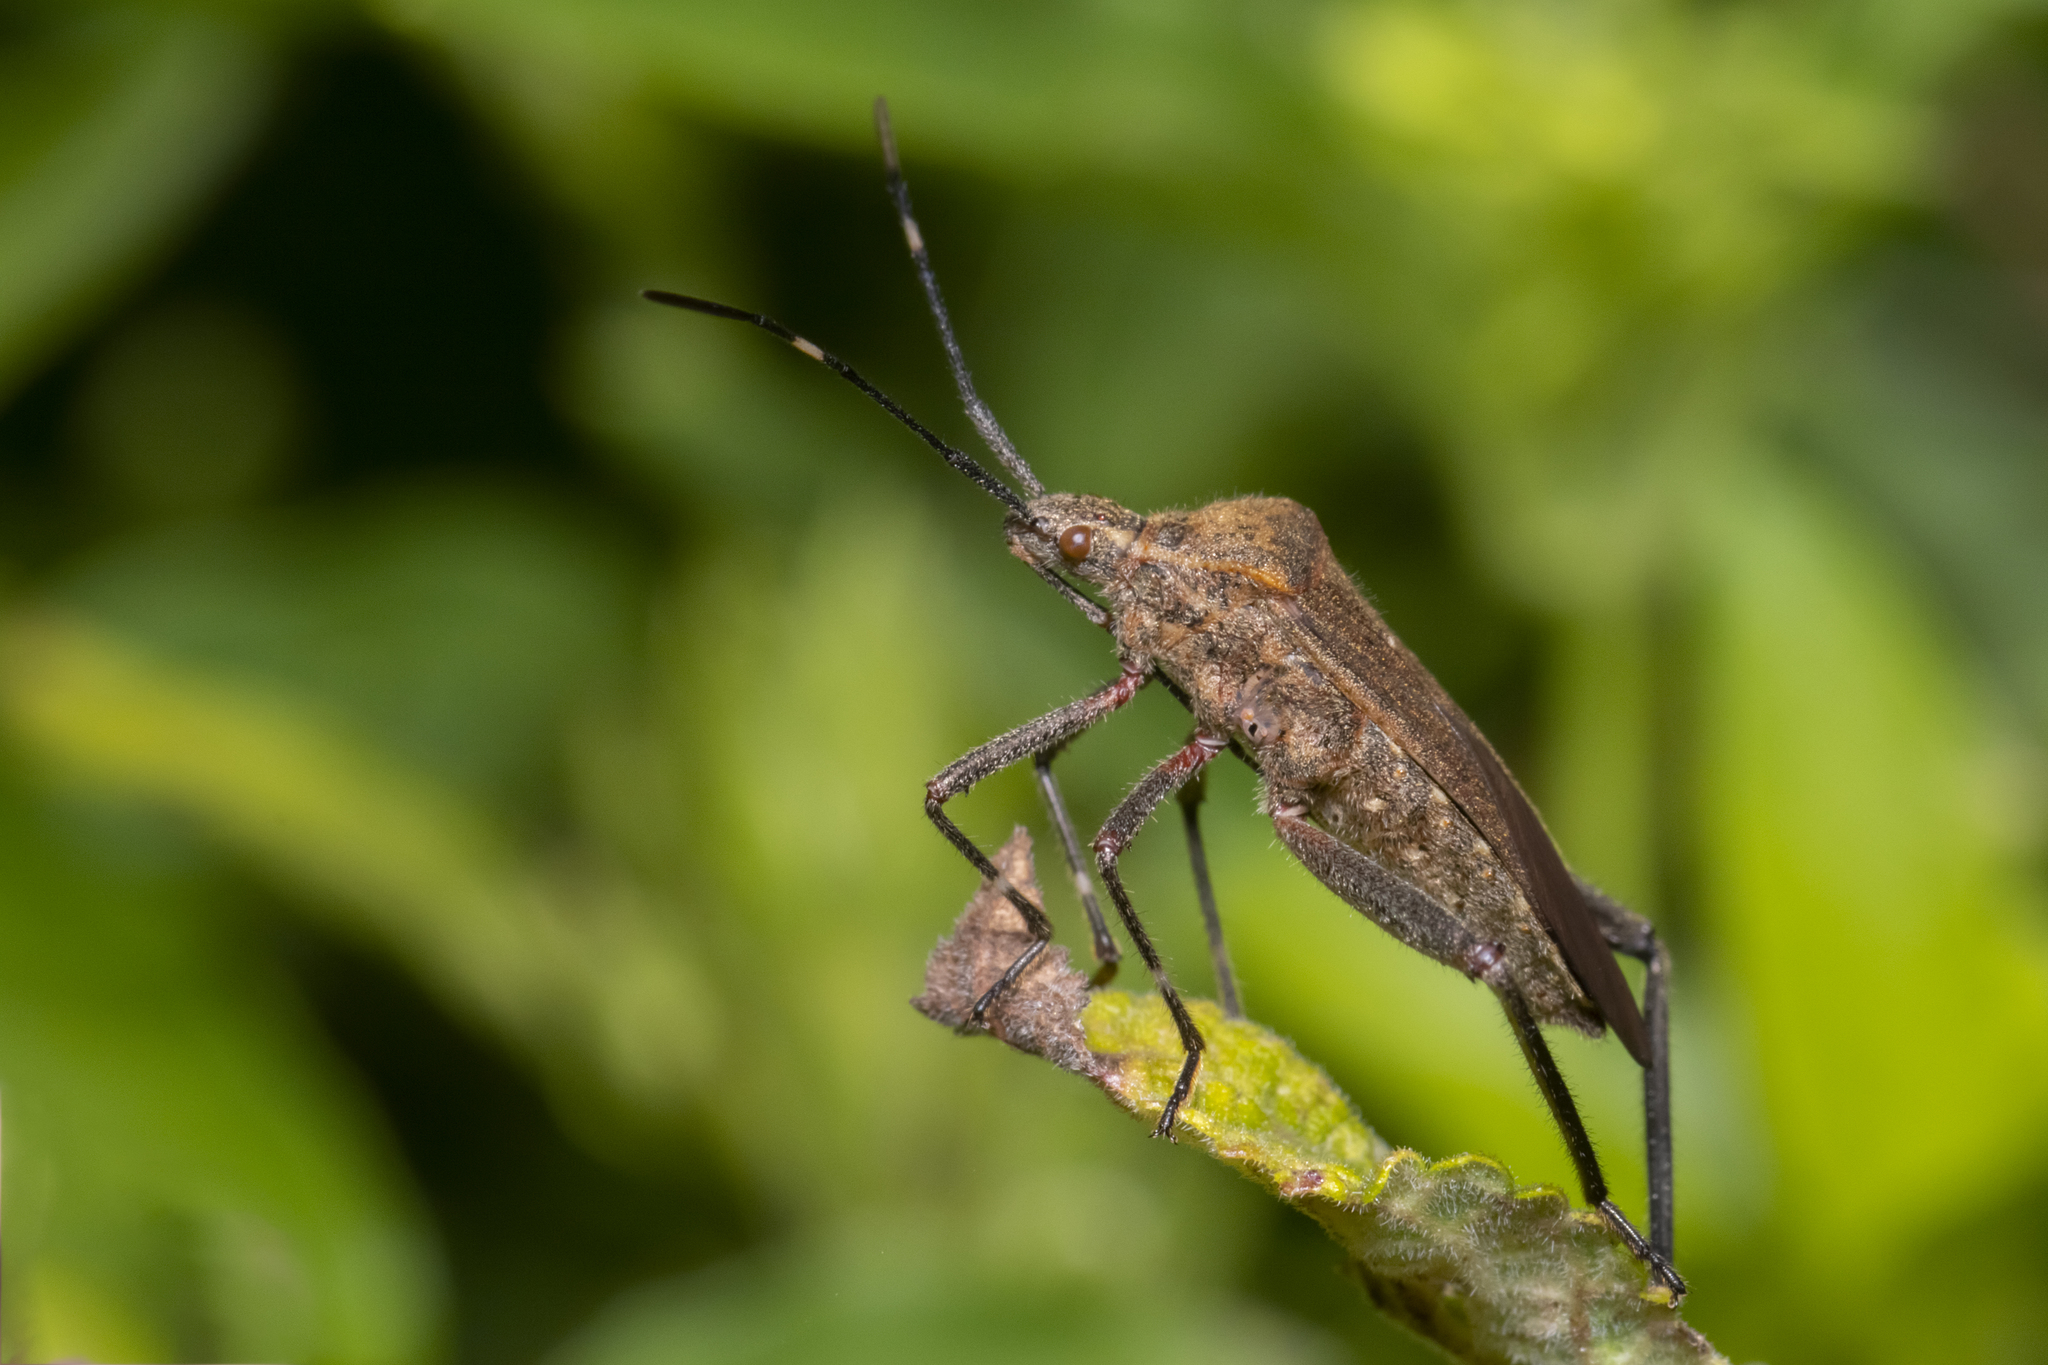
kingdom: Animalia
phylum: Arthropoda
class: Insecta
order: Hemiptera
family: Coreidae
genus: Phthiacnemia
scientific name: Phthiacnemia picta
